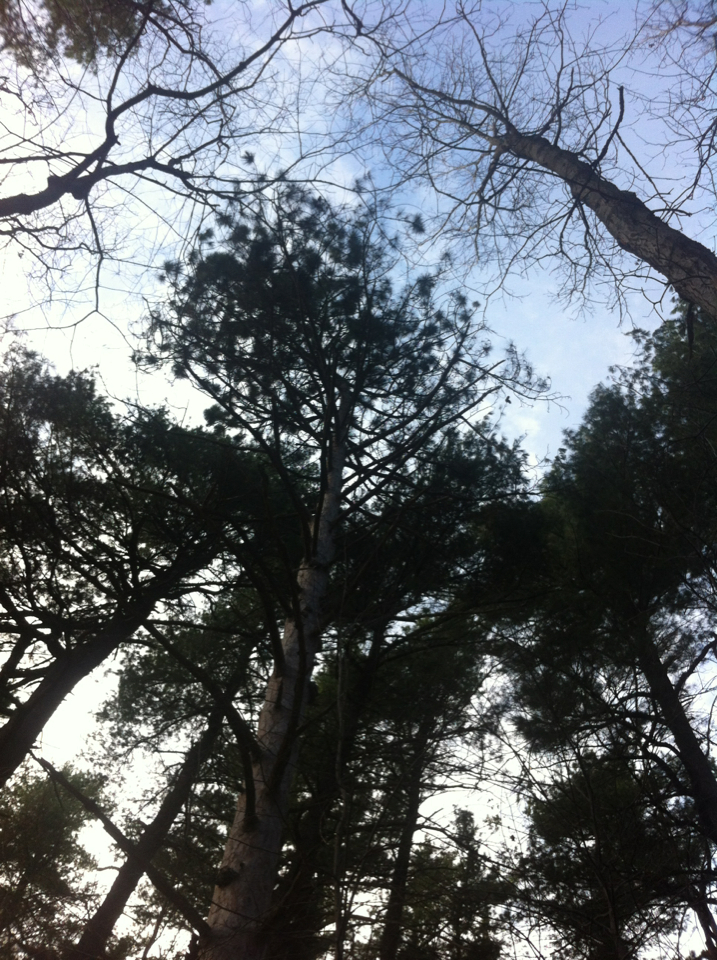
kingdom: Plantae
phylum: Tracheophyta
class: Pinopsida
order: Pinales
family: Pinaceae
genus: Pinus
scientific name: Pinus resinosa
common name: Norway pine
